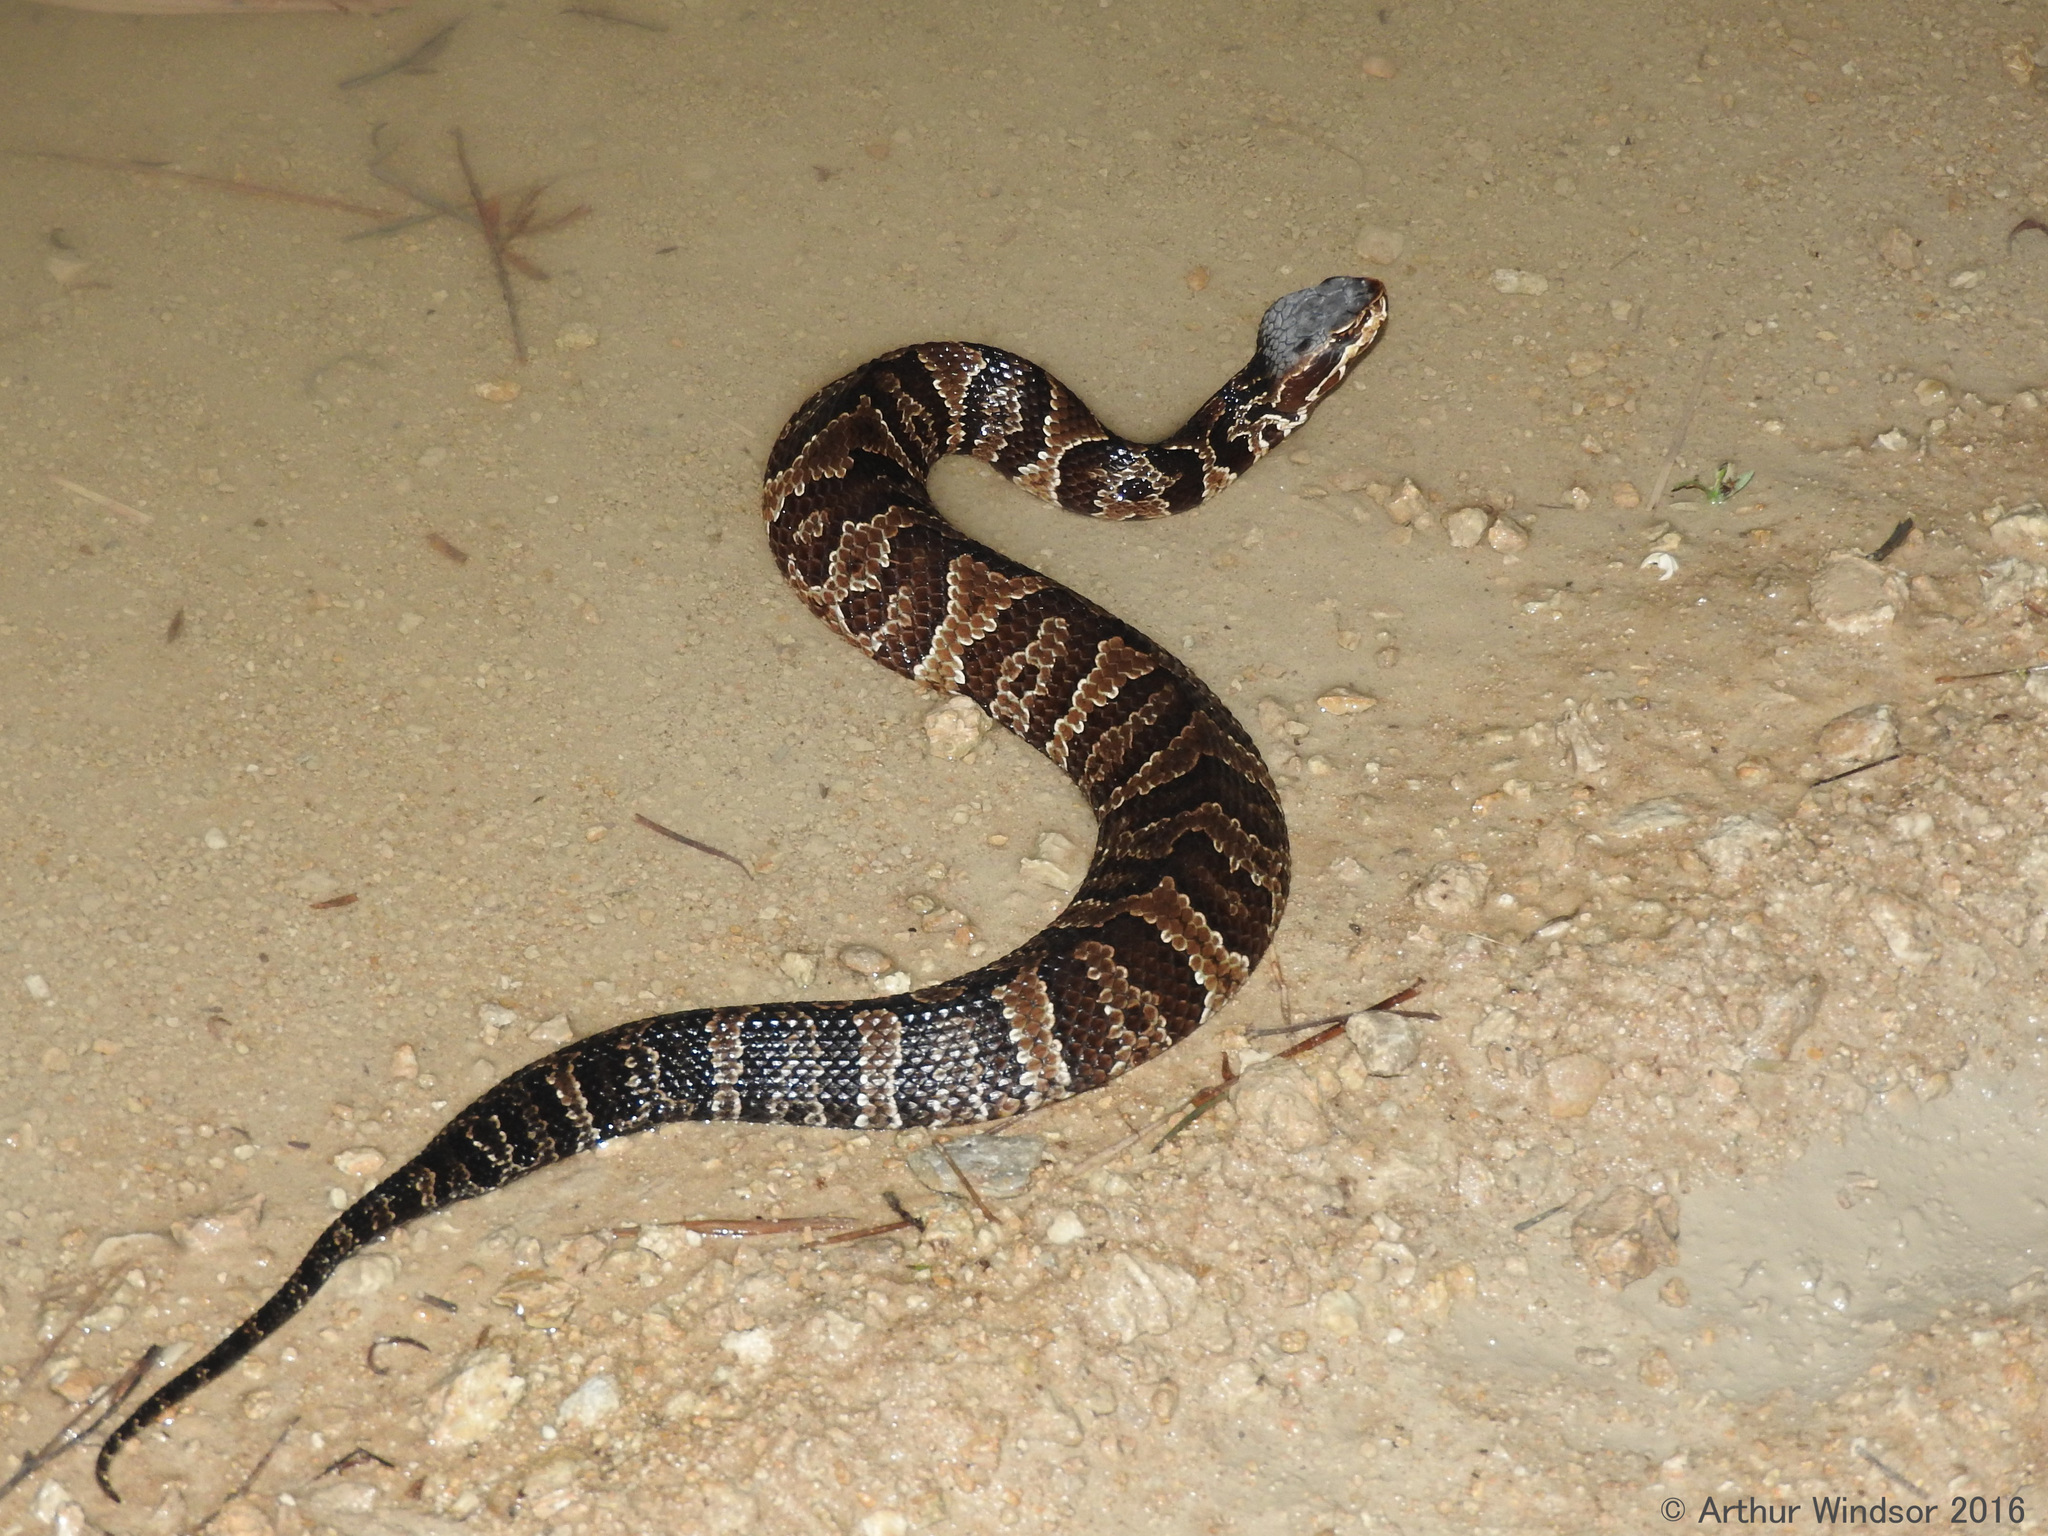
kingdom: Animalia
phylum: Chordata
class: Squamata
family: Viperidae
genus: Agkistrodon
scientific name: Agkistrodon conanti
